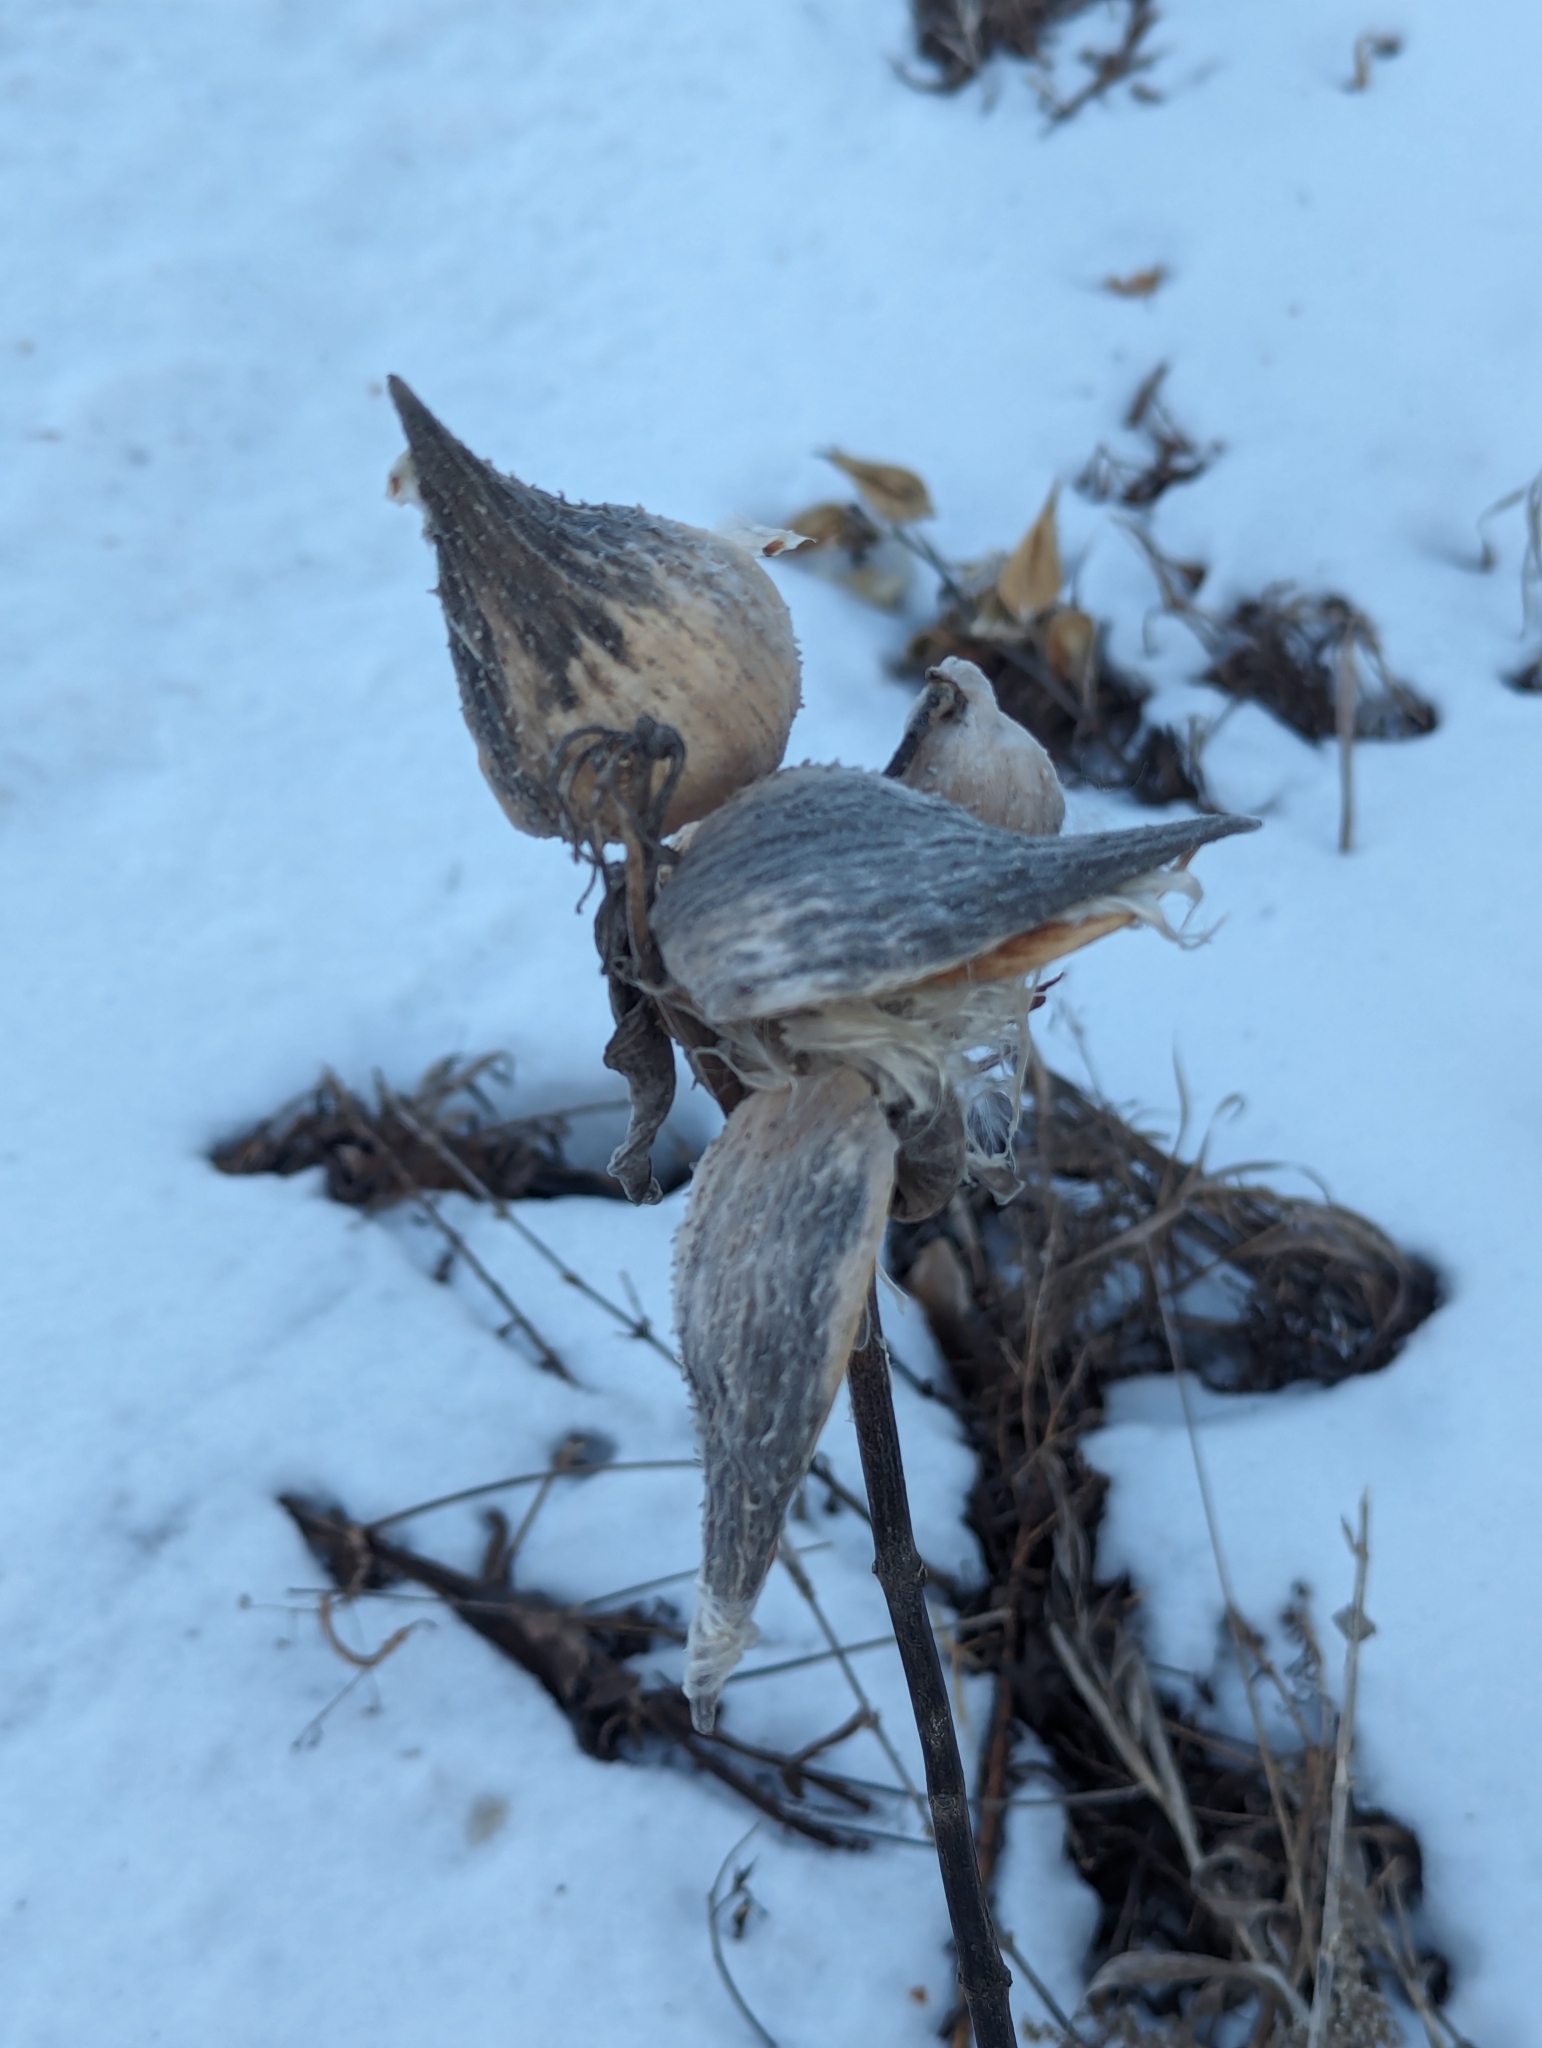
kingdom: Plantae
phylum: Tracheophyta
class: Magnoliopsida
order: Gentianales
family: Apocynaceae
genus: Asclepias
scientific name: Asclepias syriaca
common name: Common milkweed
